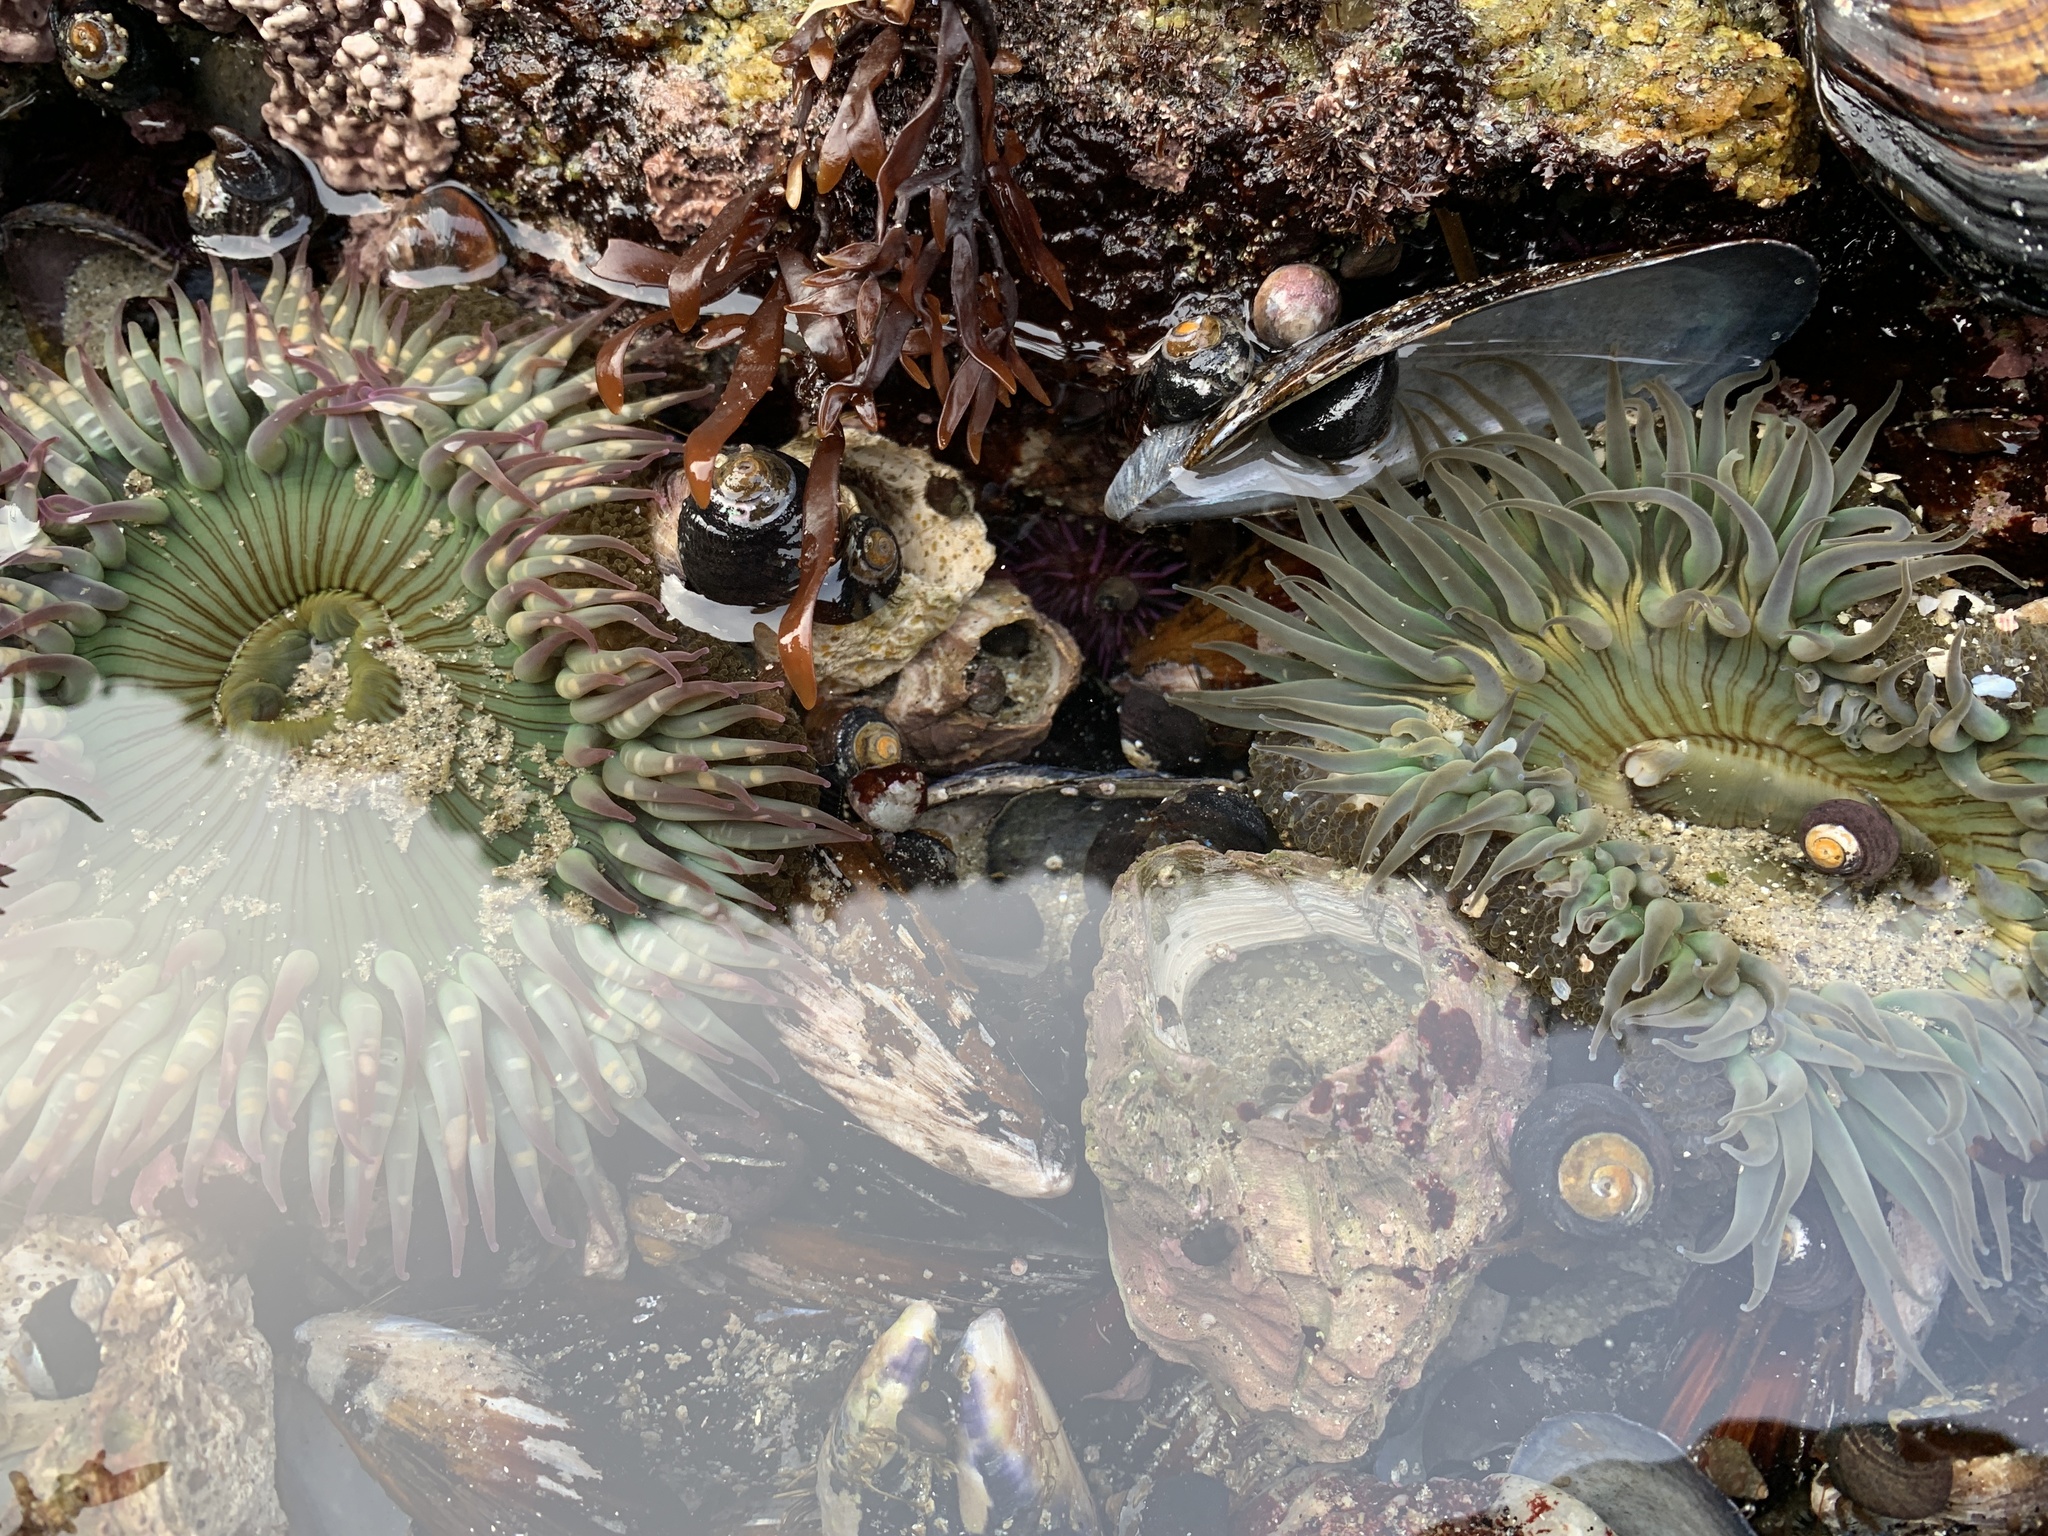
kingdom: Animalia
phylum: Cnidaria
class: Anthozoa
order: Actiniaria
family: Actiniidae
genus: Anthopleura
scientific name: Anthopleura sola
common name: Sun anemone
